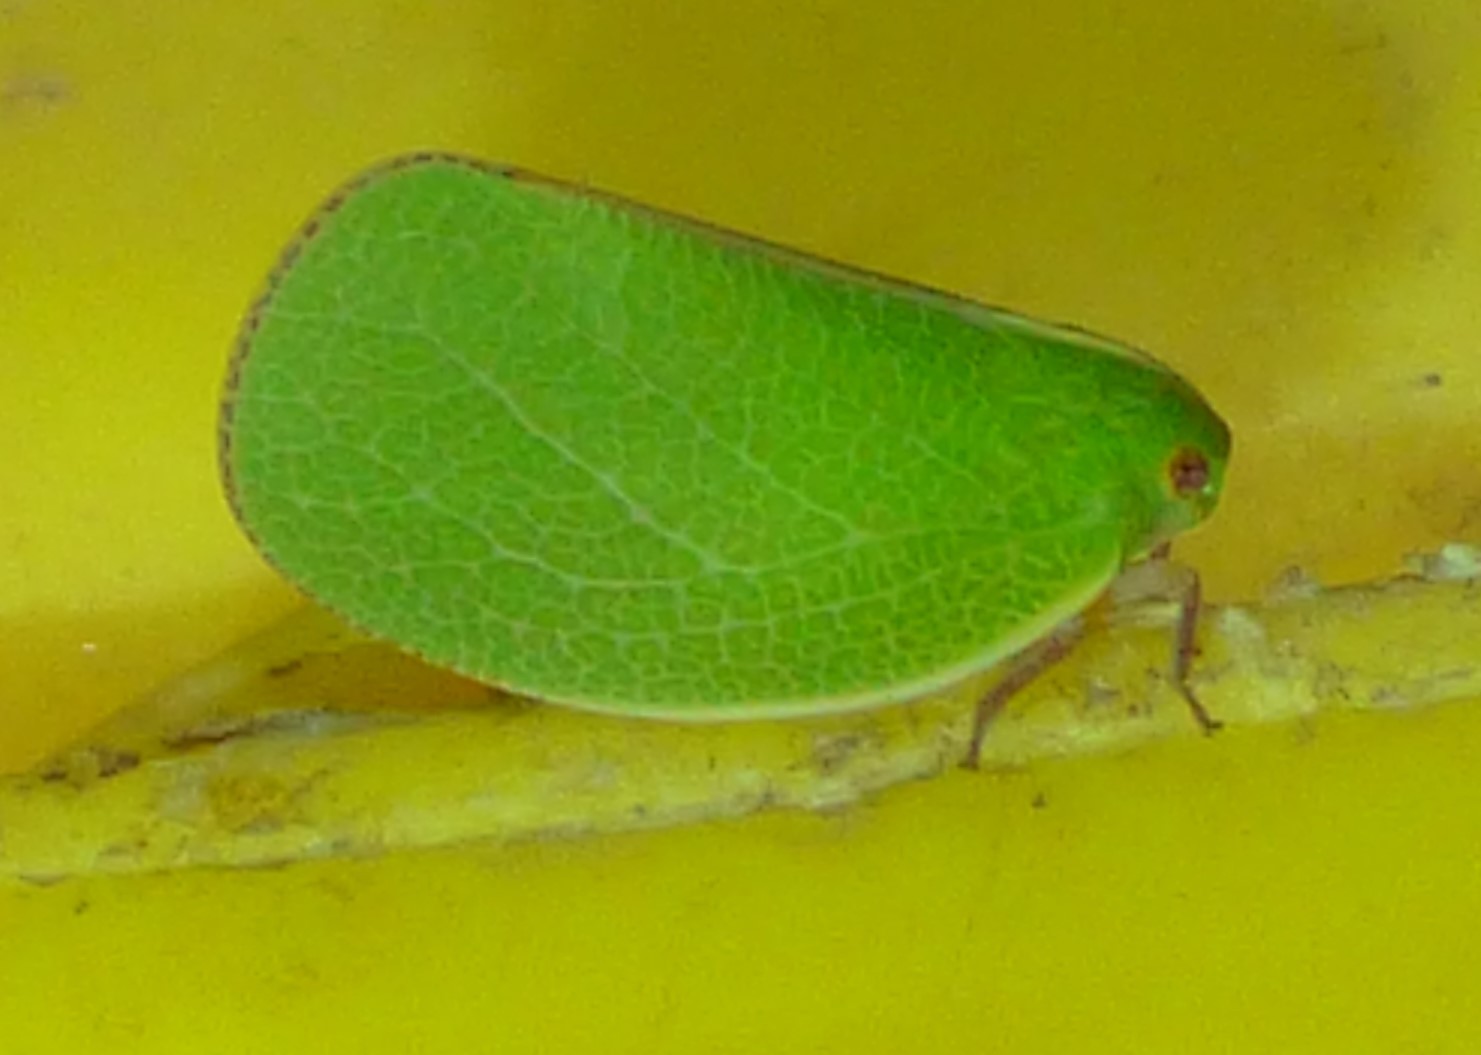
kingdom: Animalia
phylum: Arthropoda
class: Insecta
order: Hemiptera
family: Acanaloniidae
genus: Acanalonia
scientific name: Acanalonia servillei
